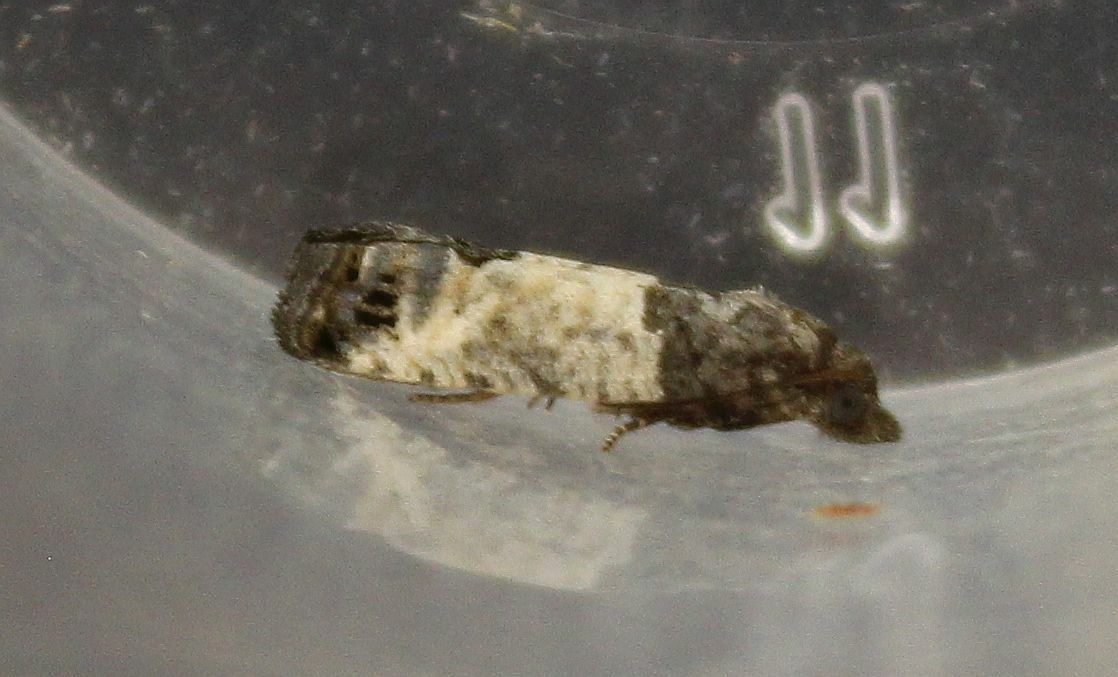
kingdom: Animalia
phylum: Arthropoda
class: Insecta
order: Lepidoptera
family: Tortricidae
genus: Spilonota
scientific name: Spilonota ocellana
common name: Bud moth
